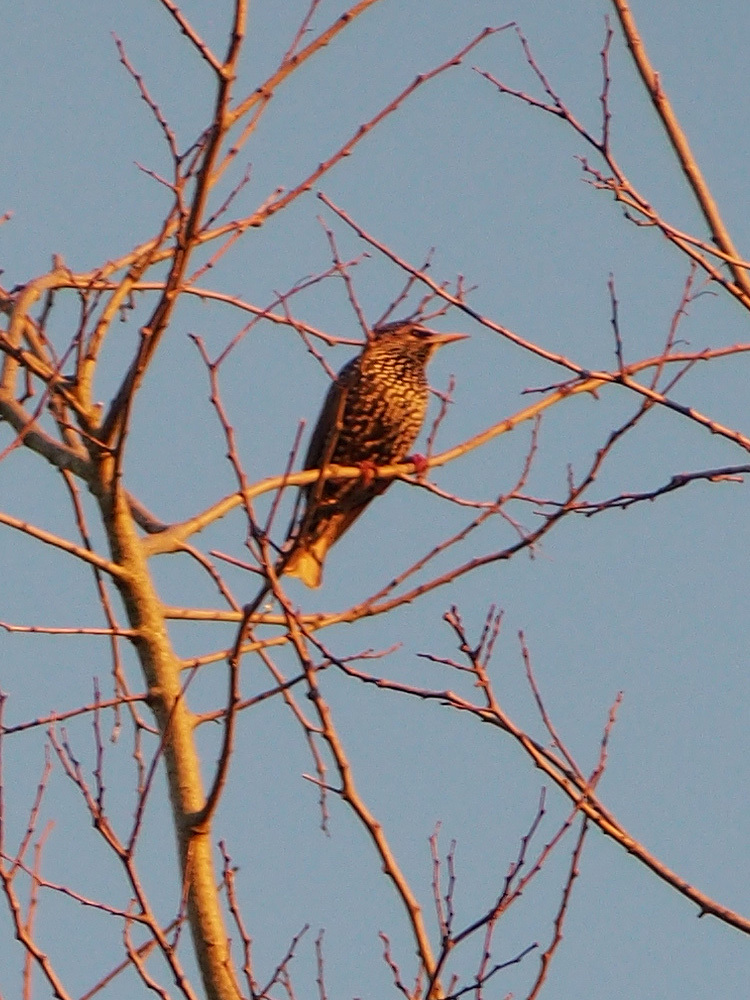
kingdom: Animalia
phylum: Chordata
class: Aves
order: Passeriformes
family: Sturnidae
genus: Sturnus
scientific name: Sturnus vulgaris
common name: Common starling
